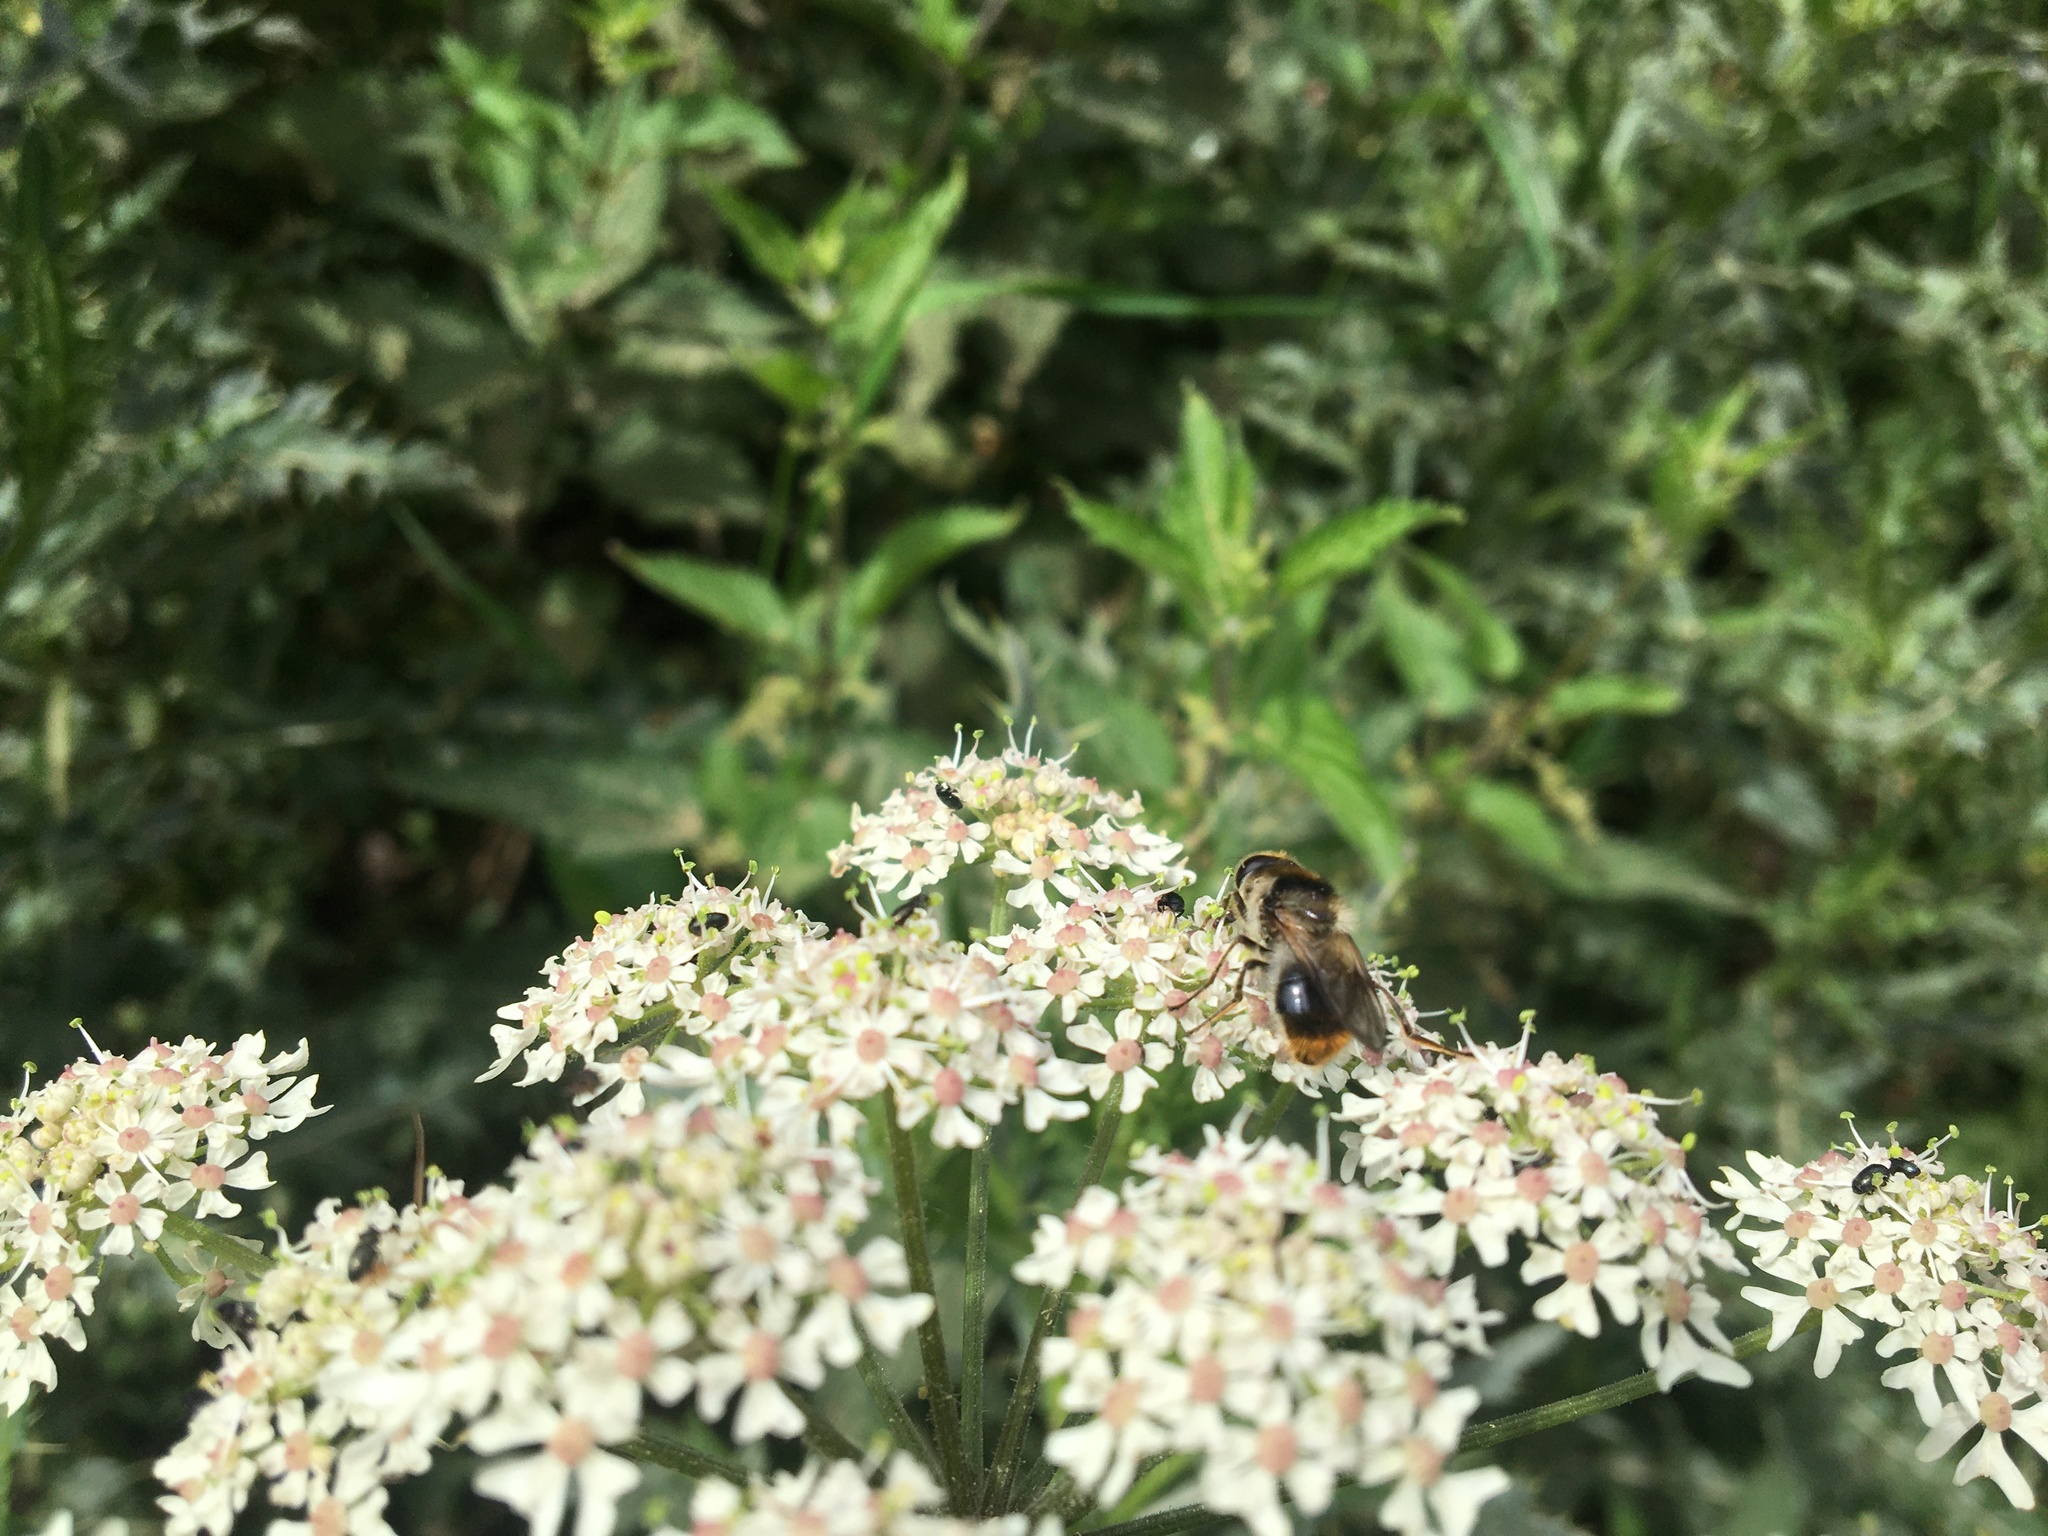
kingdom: Animalia
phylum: Arthropoda
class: Insecta
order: Diptera
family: Syrphidae
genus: Cheilosia
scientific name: Cheilosia illustrata
